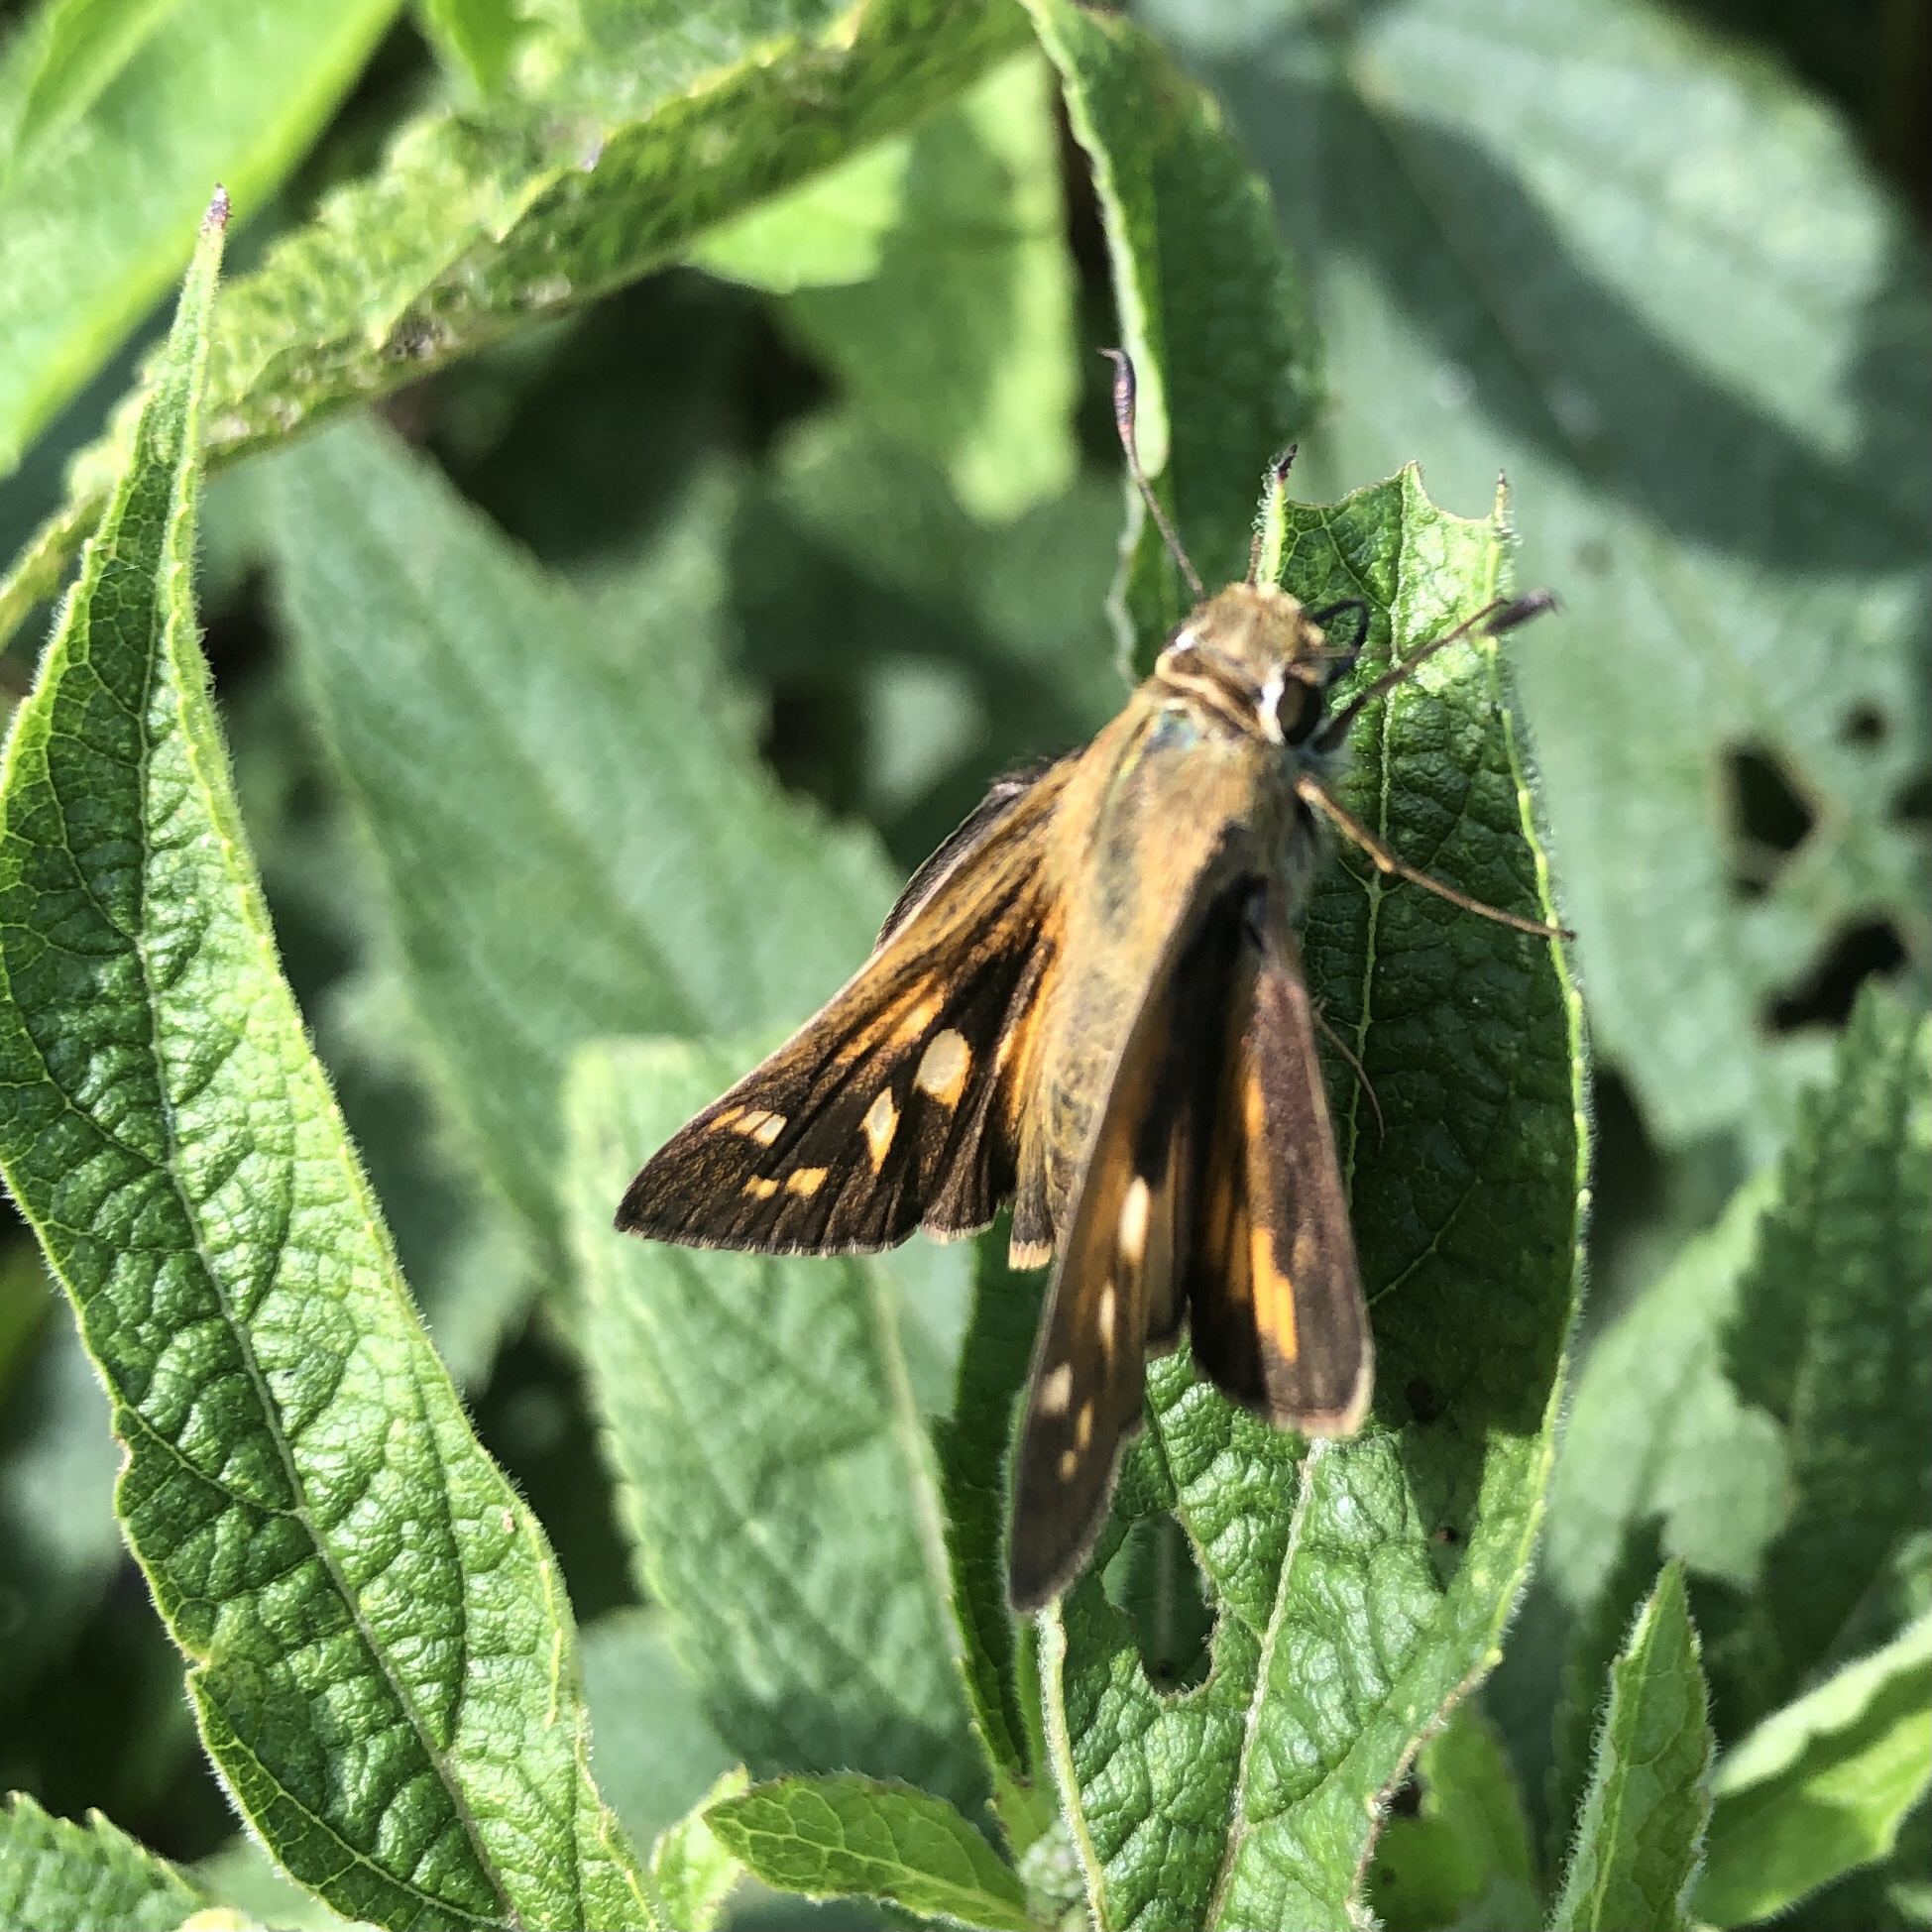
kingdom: Animalia
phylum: Arthropoda
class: Insecta
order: Lepidoptera
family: Hesperiidae
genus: Atalopedes
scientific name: Atalopedes
